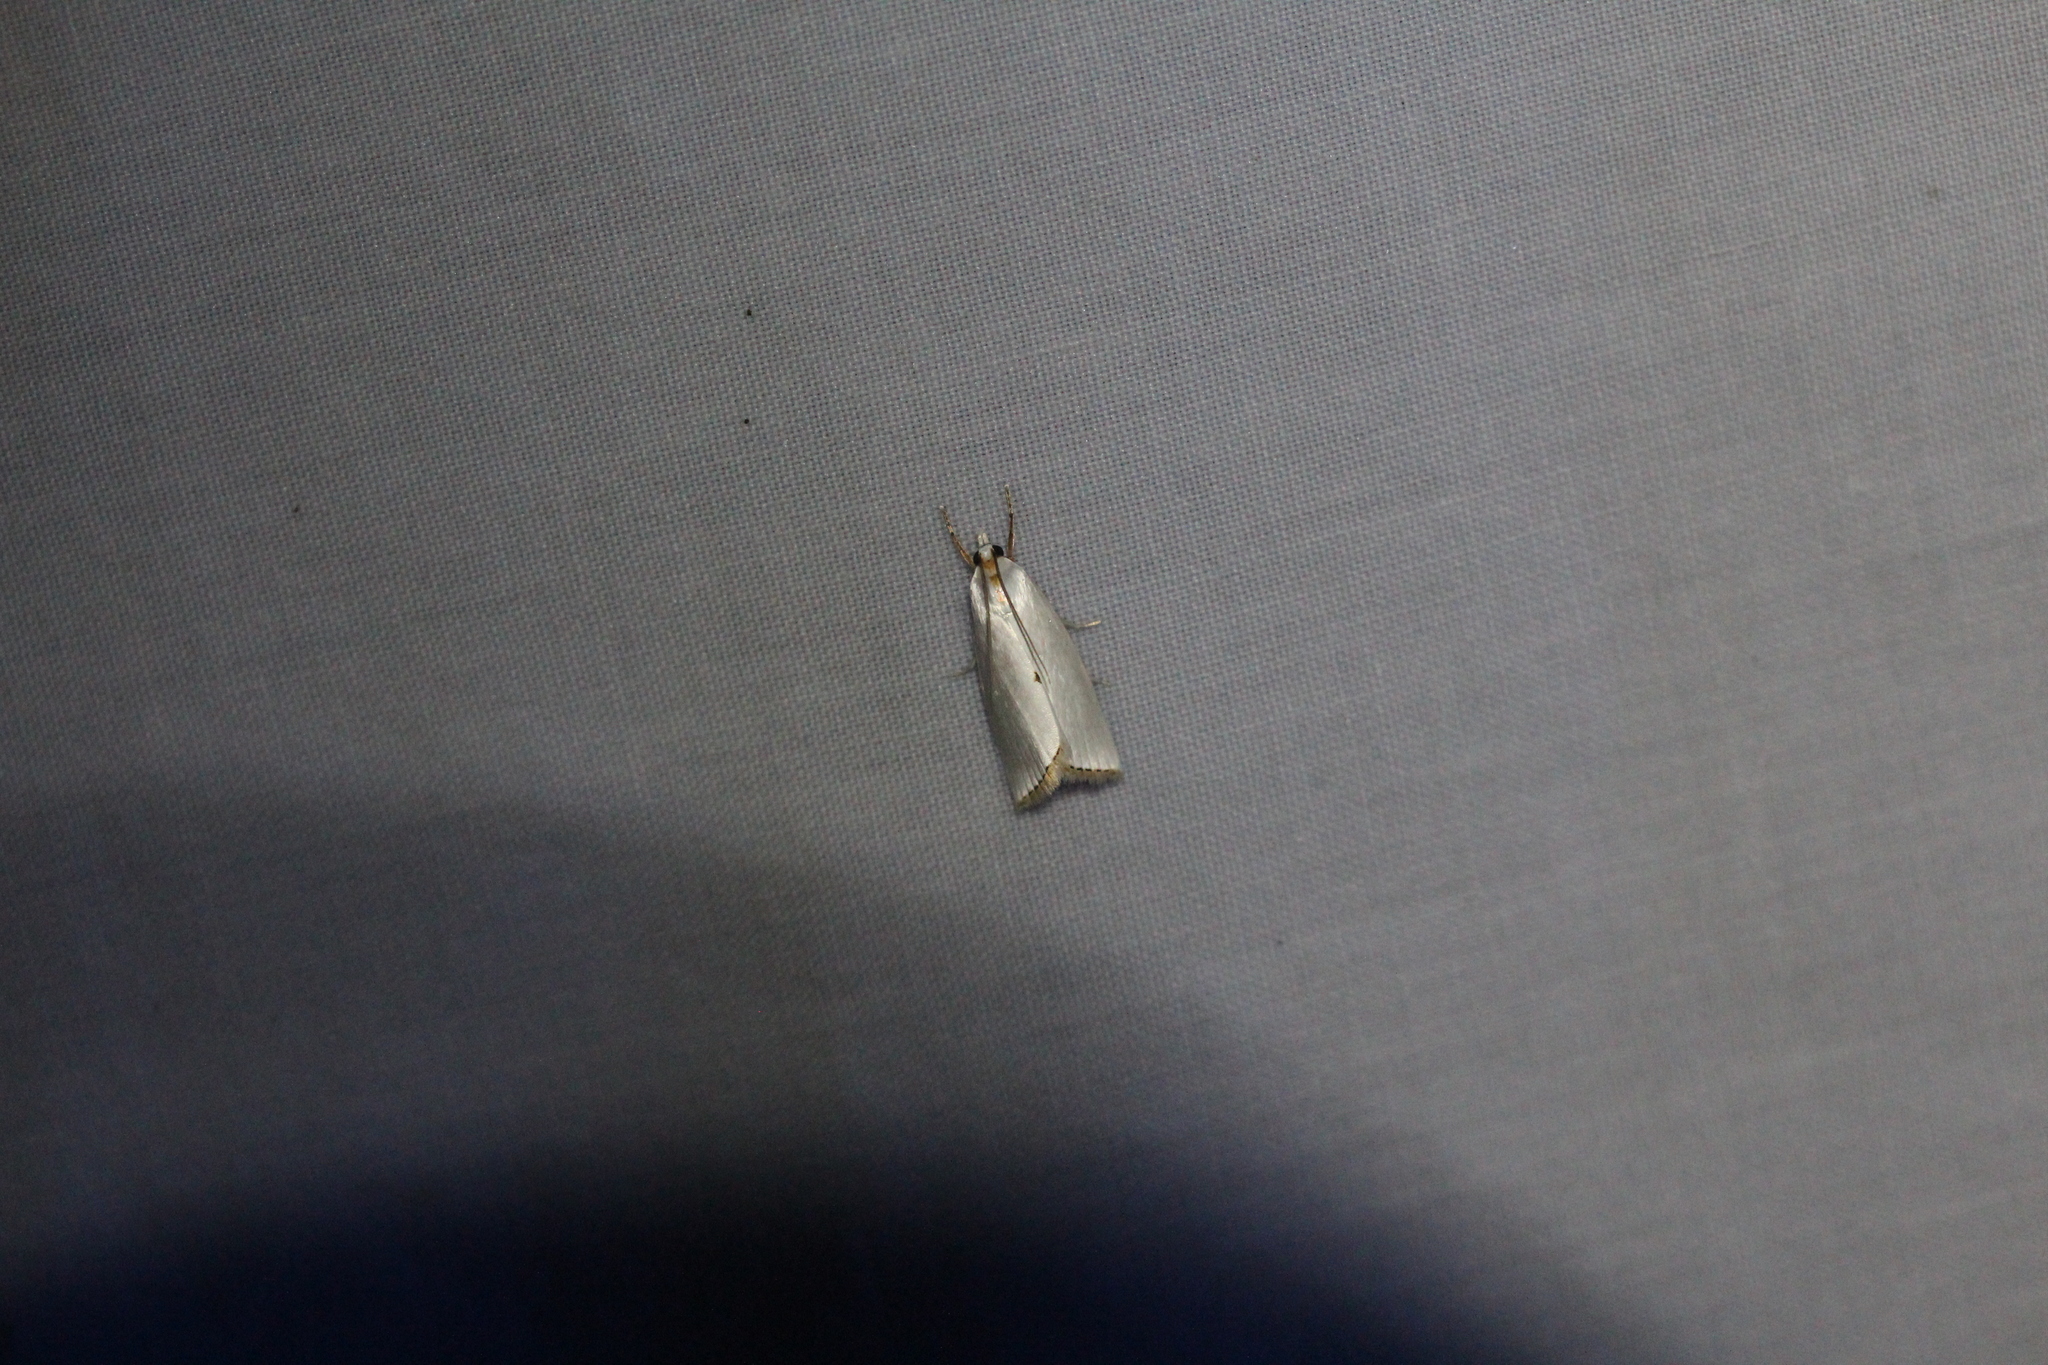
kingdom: Animalia
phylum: Arthropoda
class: Insecta
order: Lepidoptera
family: Crambidae
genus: Argyria
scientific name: Argyria nivalis
